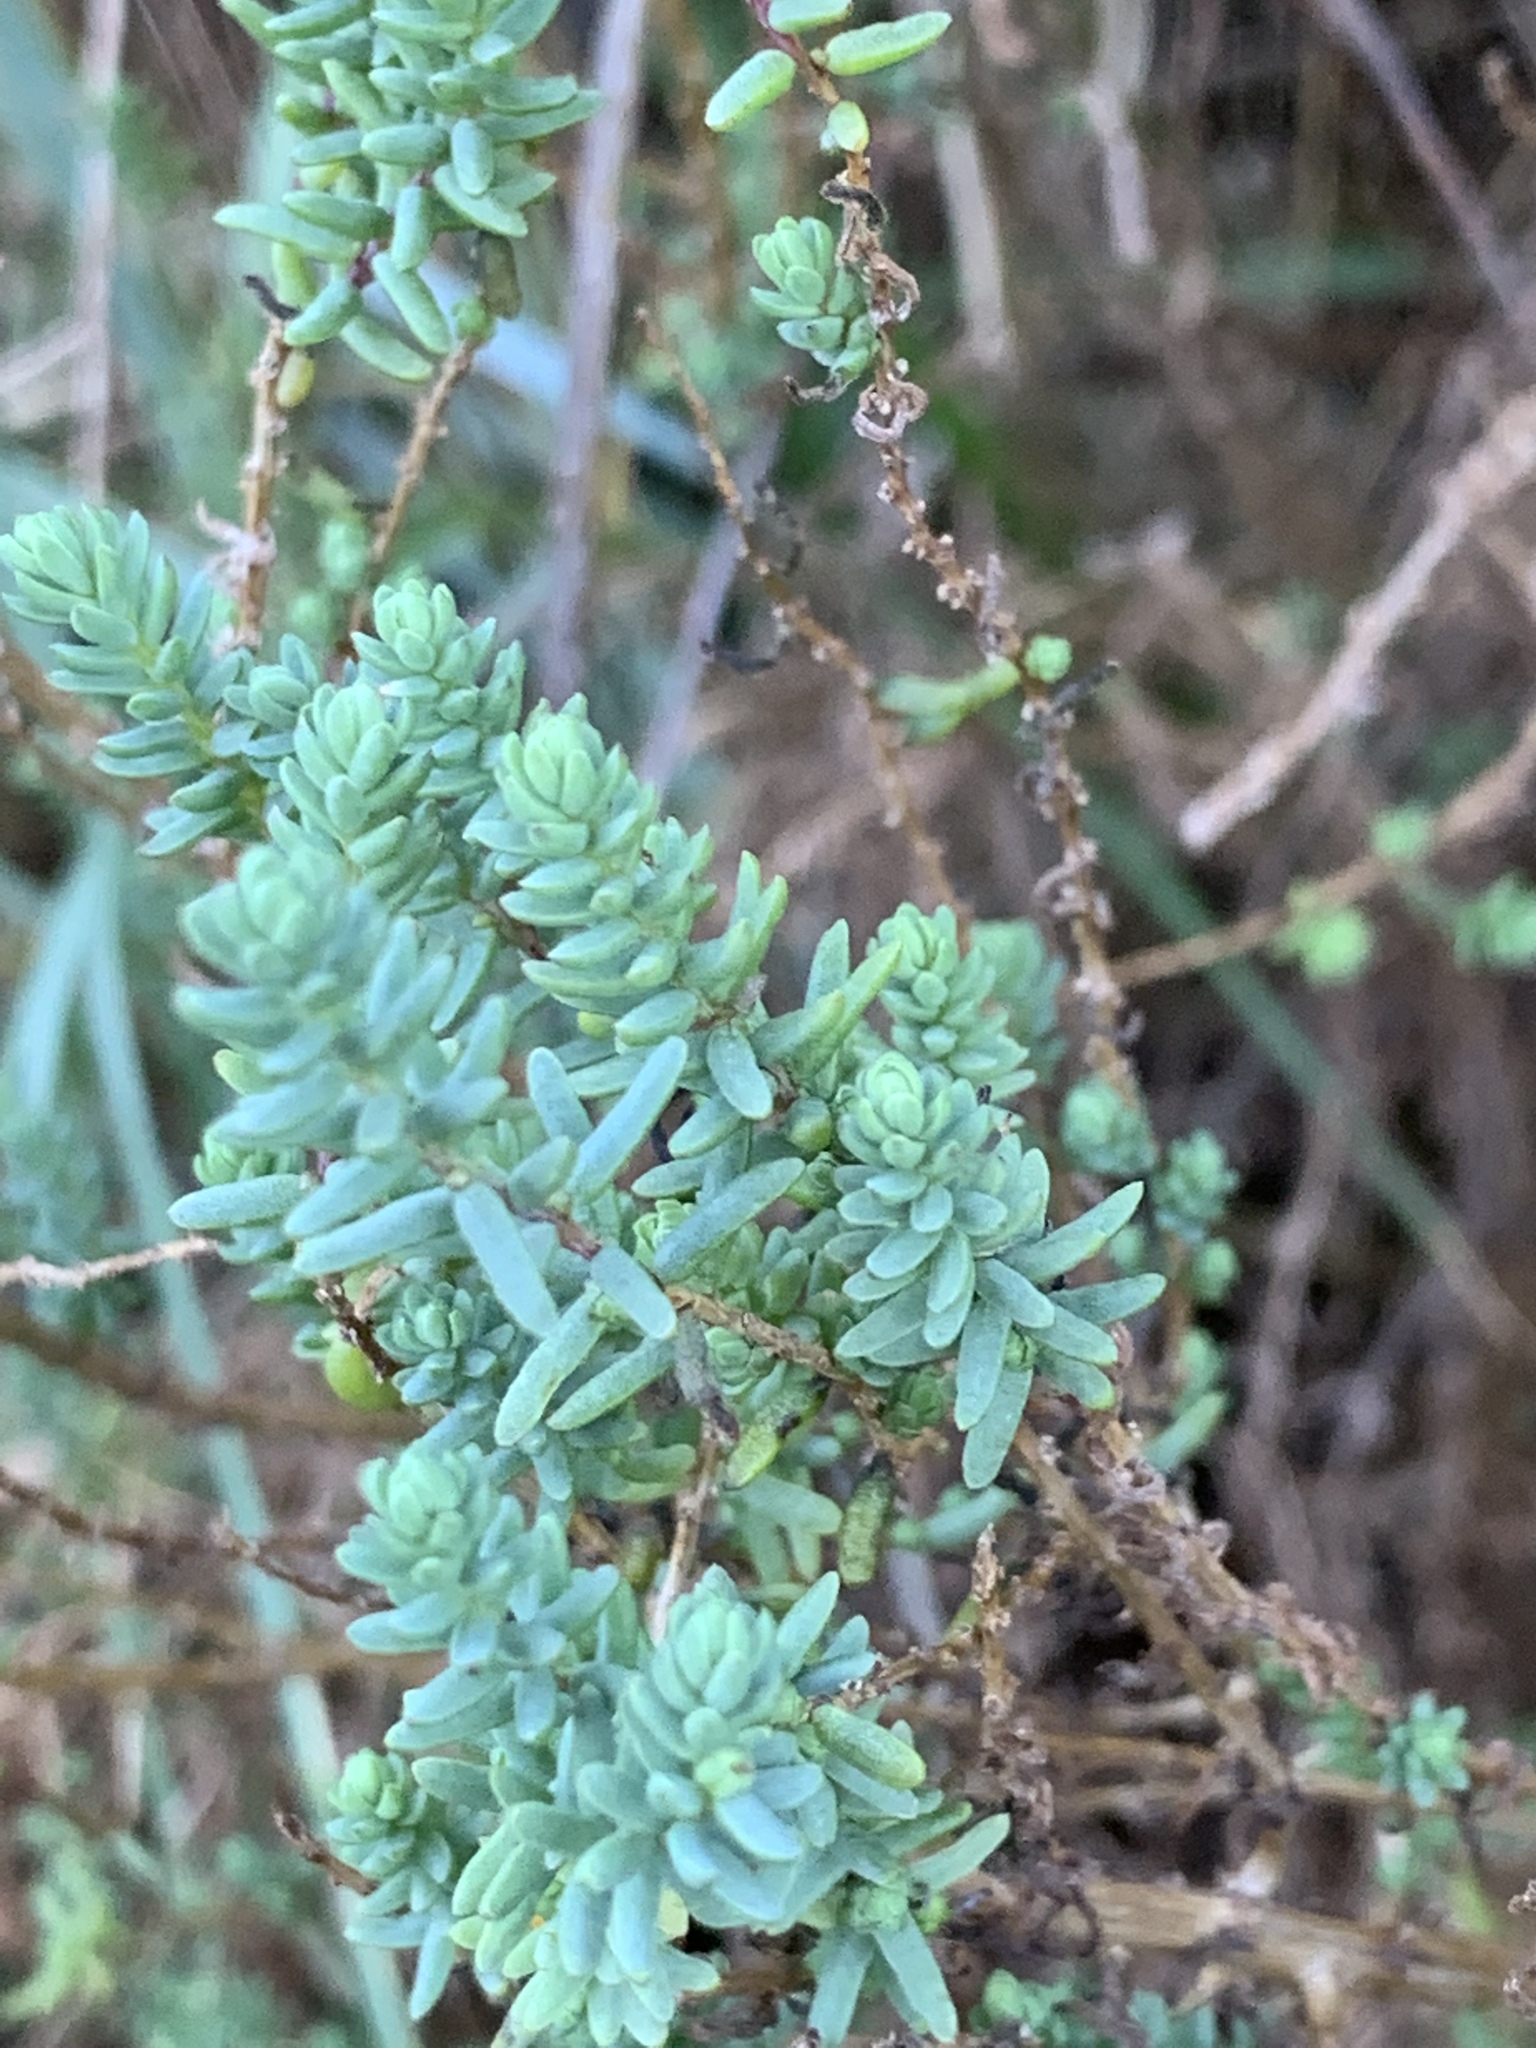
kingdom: Plantae
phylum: Tracheophyta
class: Magnoliopsida
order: Caryophyllales
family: Amaranthaceae
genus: Suaeda
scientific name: Suaeda vera
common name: Shrubby sea-blite
